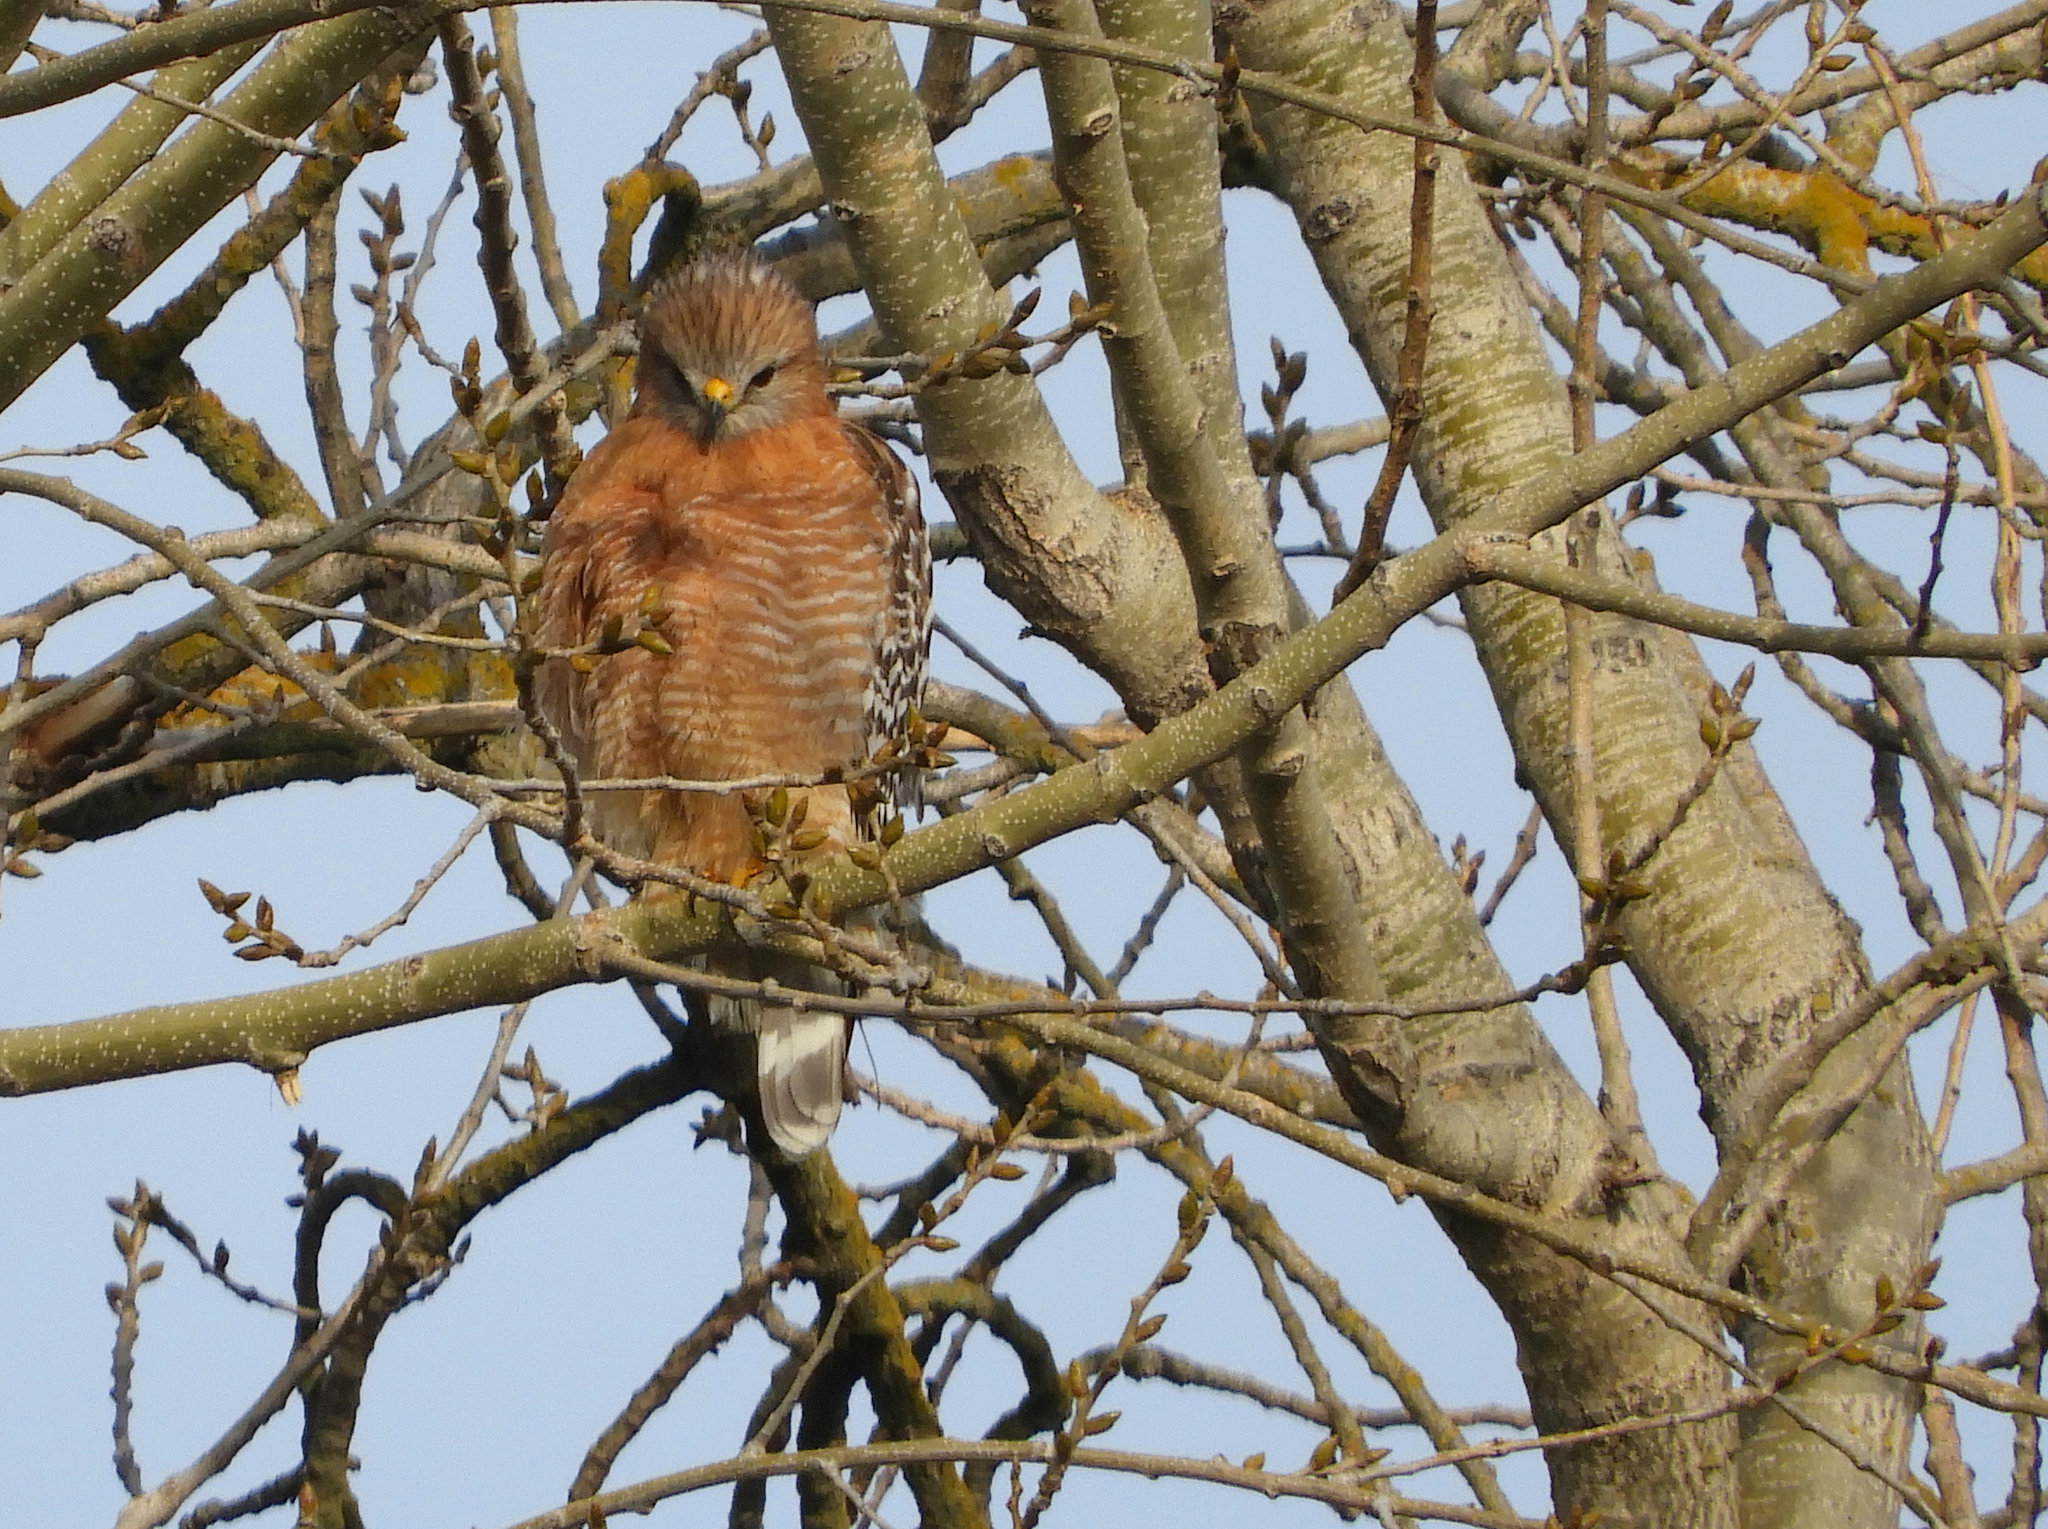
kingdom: Animalia
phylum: Chordata
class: Aves
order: Accipitriformes
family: Accipitridae
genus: Buteo
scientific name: Buteo lineatus
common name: Red-shouldered hawk
